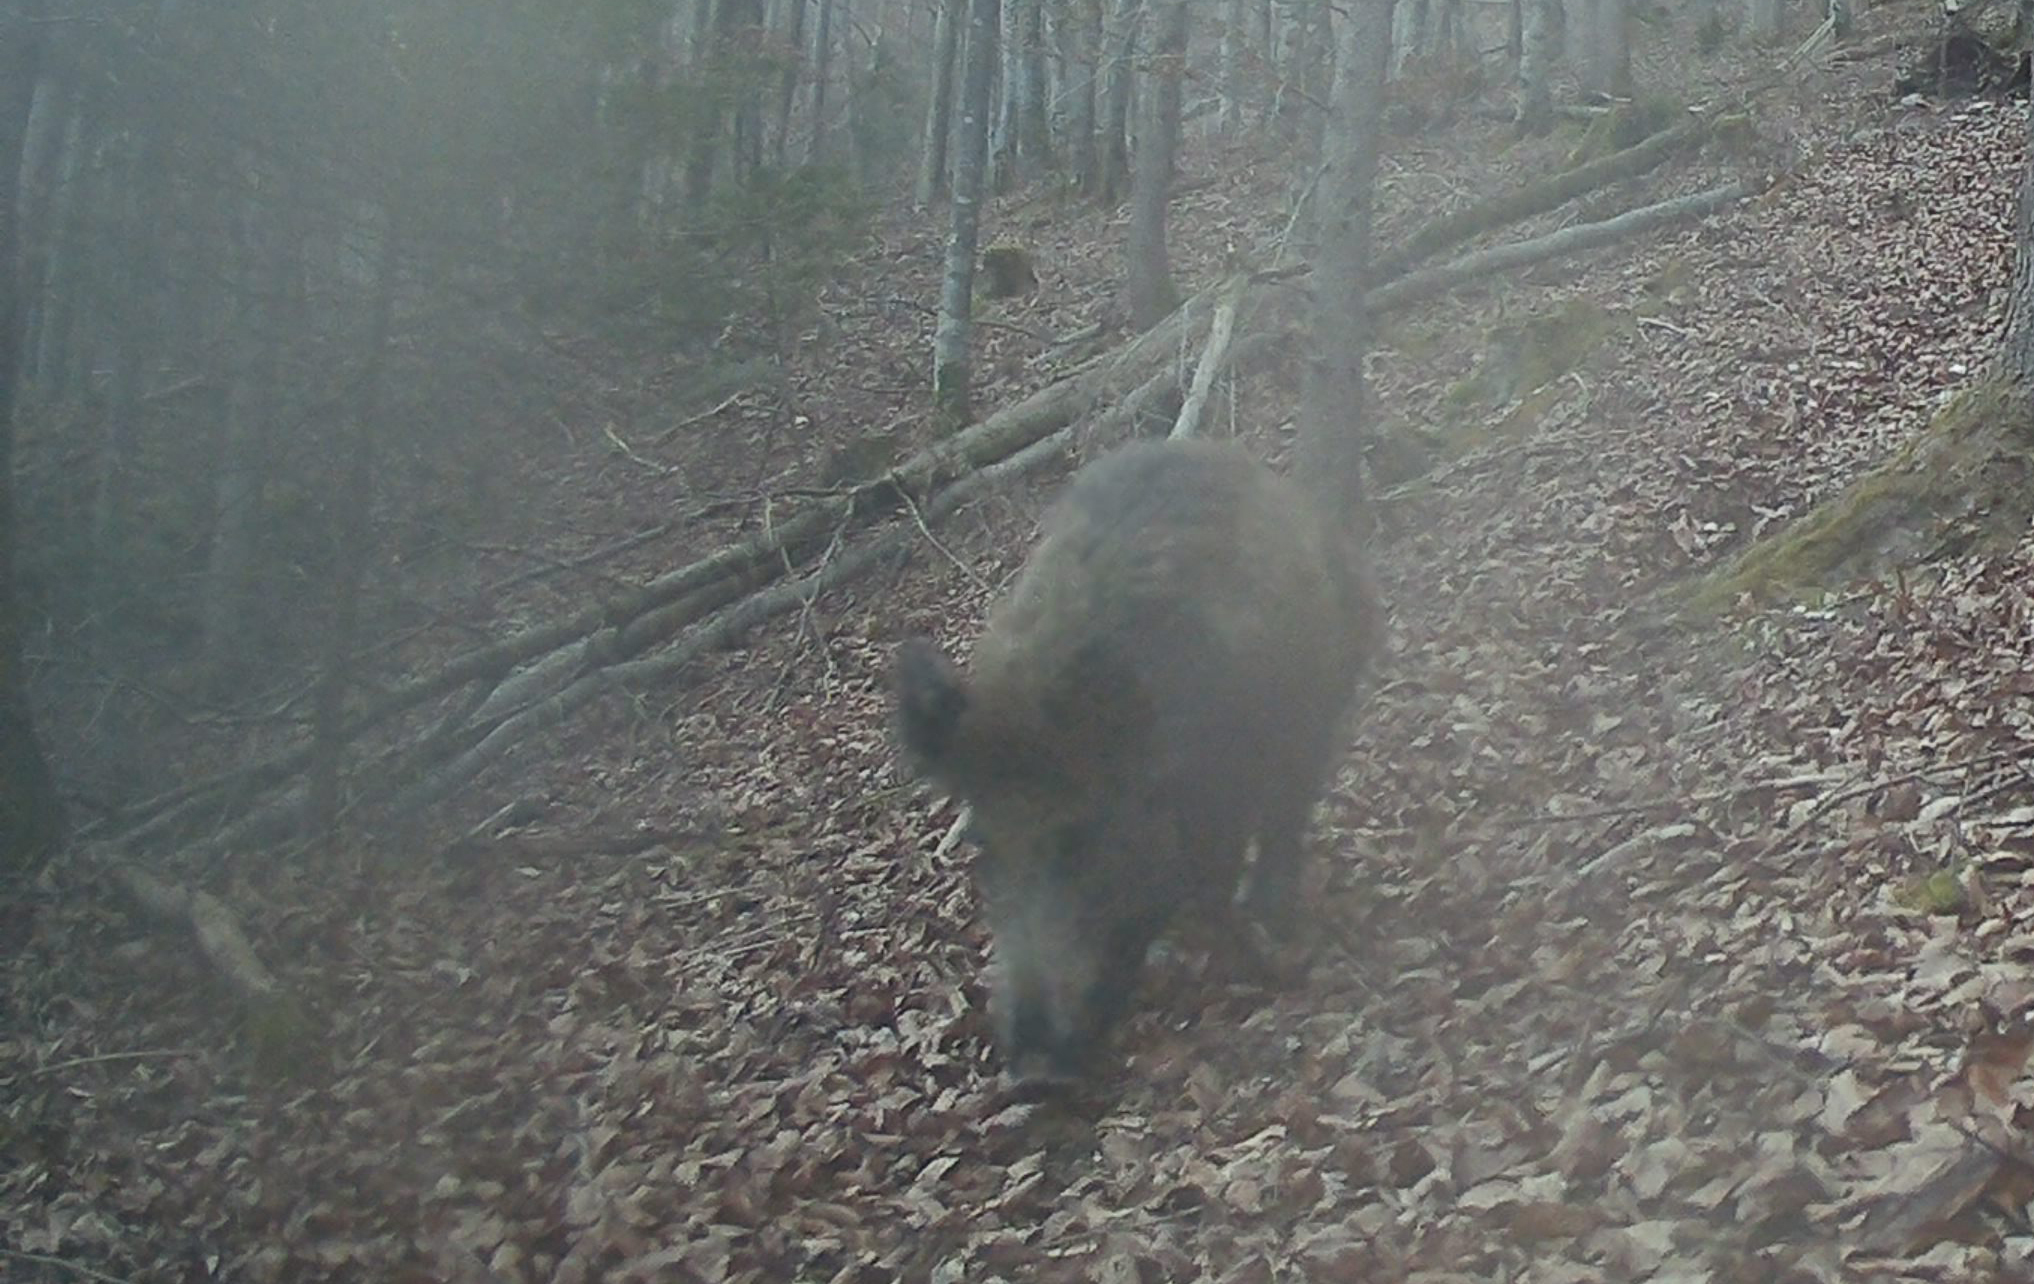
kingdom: Animalia
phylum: Chordata
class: Mammalia
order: Artiodactyla
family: Suidae
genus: Sus
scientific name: Sus scrofa
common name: Wild boar
